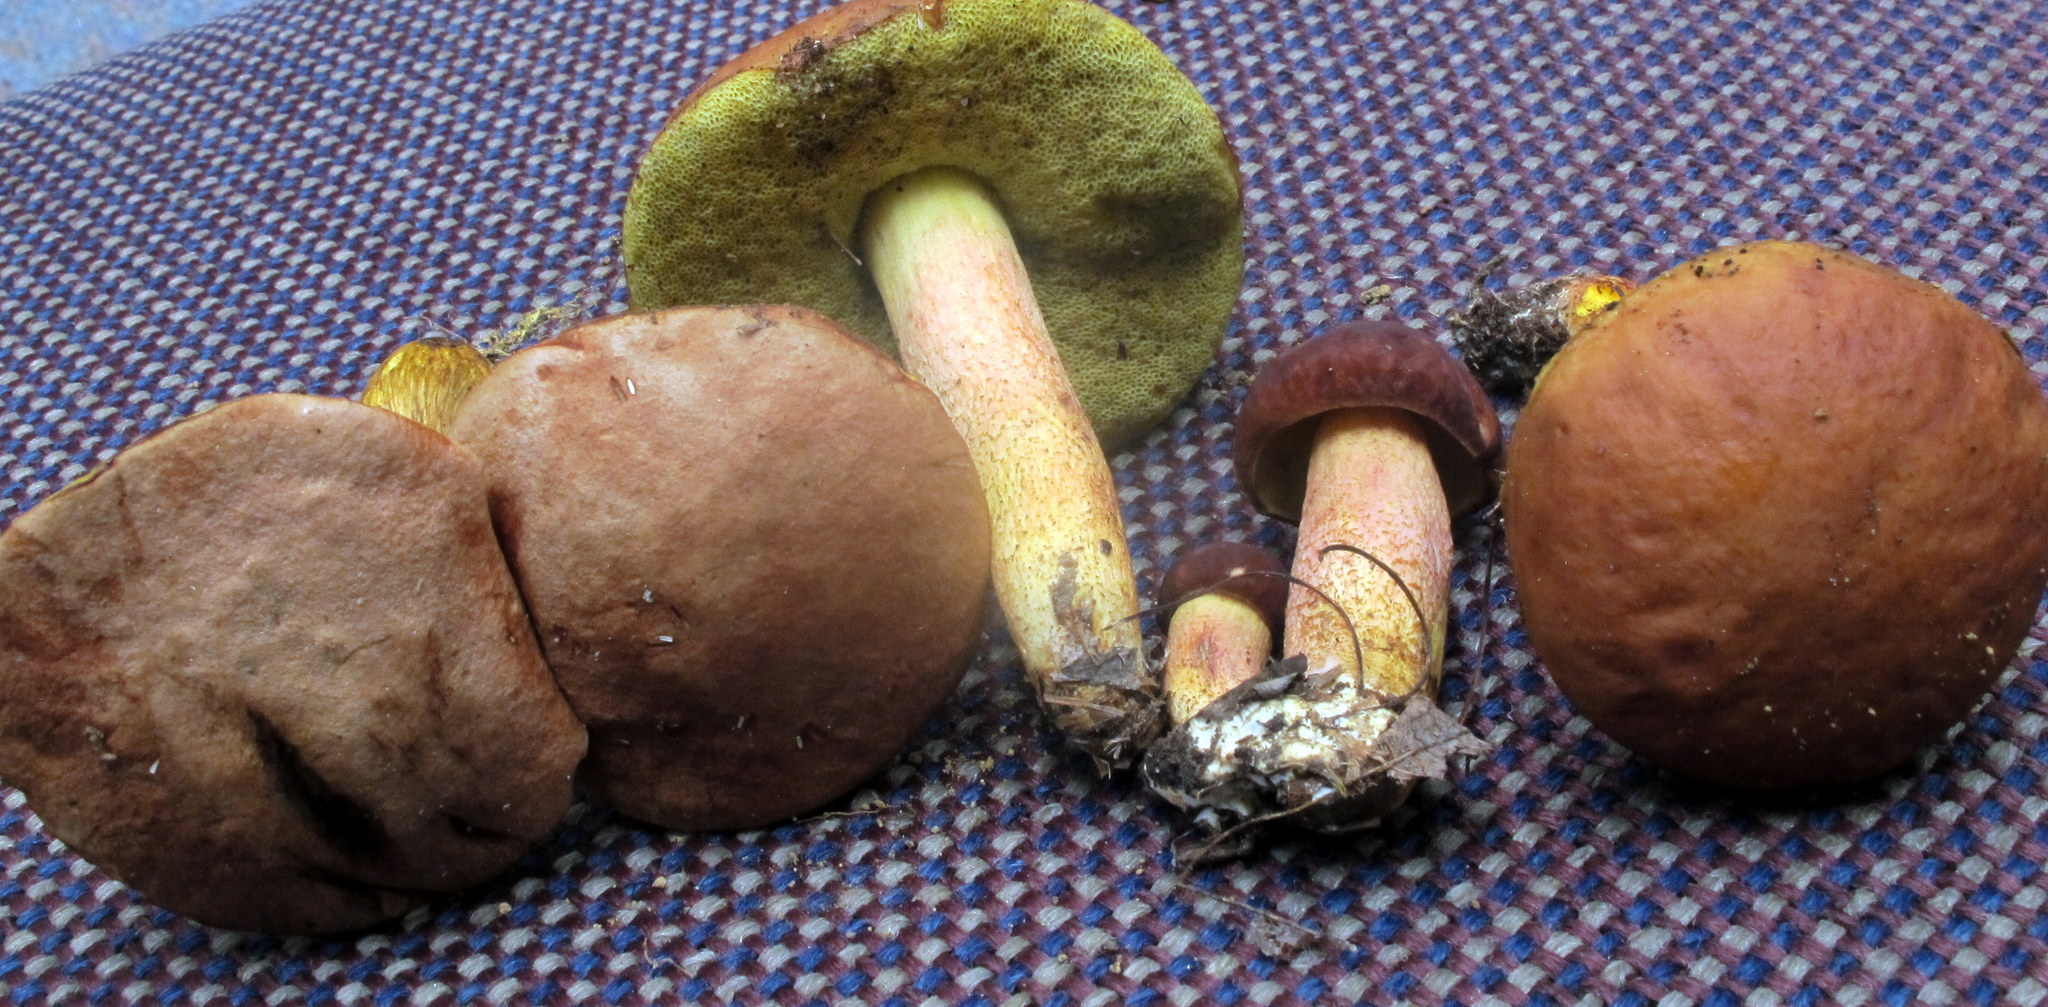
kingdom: Fungi
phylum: Basidiomycota
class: Agaricomycetes
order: Boletales
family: Boletaceae
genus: Hemileccinum
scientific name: Hemileccinum rubropunctum
